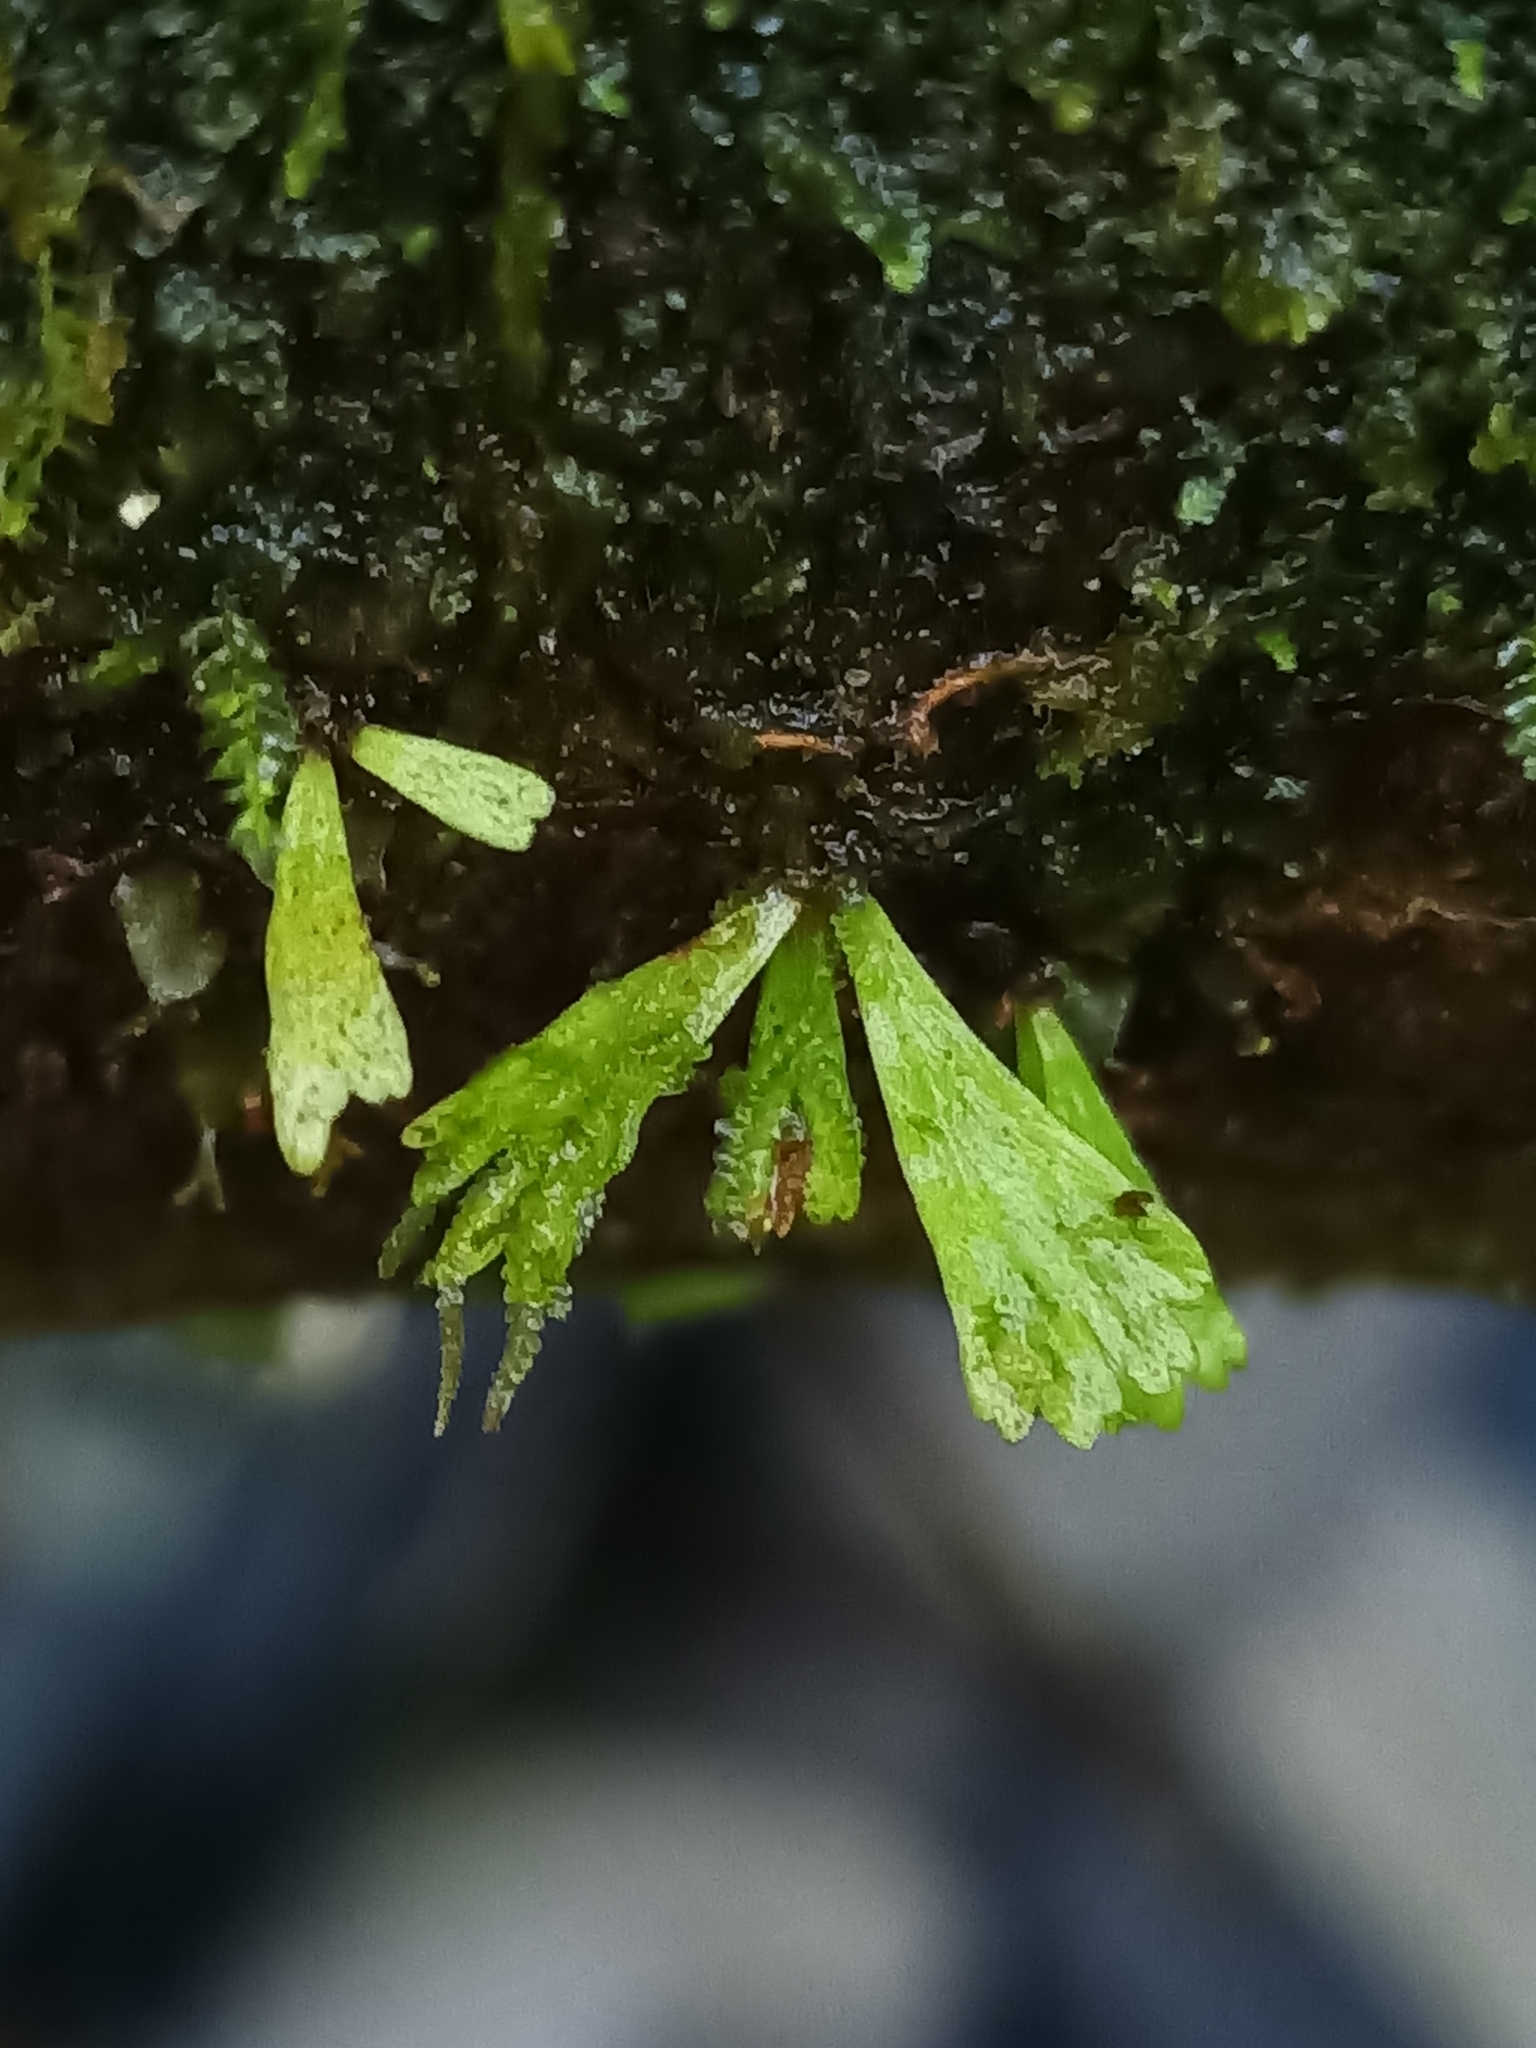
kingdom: Plantae
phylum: Tracheophyta
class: Polypodiopsida
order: Polypodiales
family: Pteridaceae
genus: Hecistopteris
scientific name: Hecistopteris pumila
